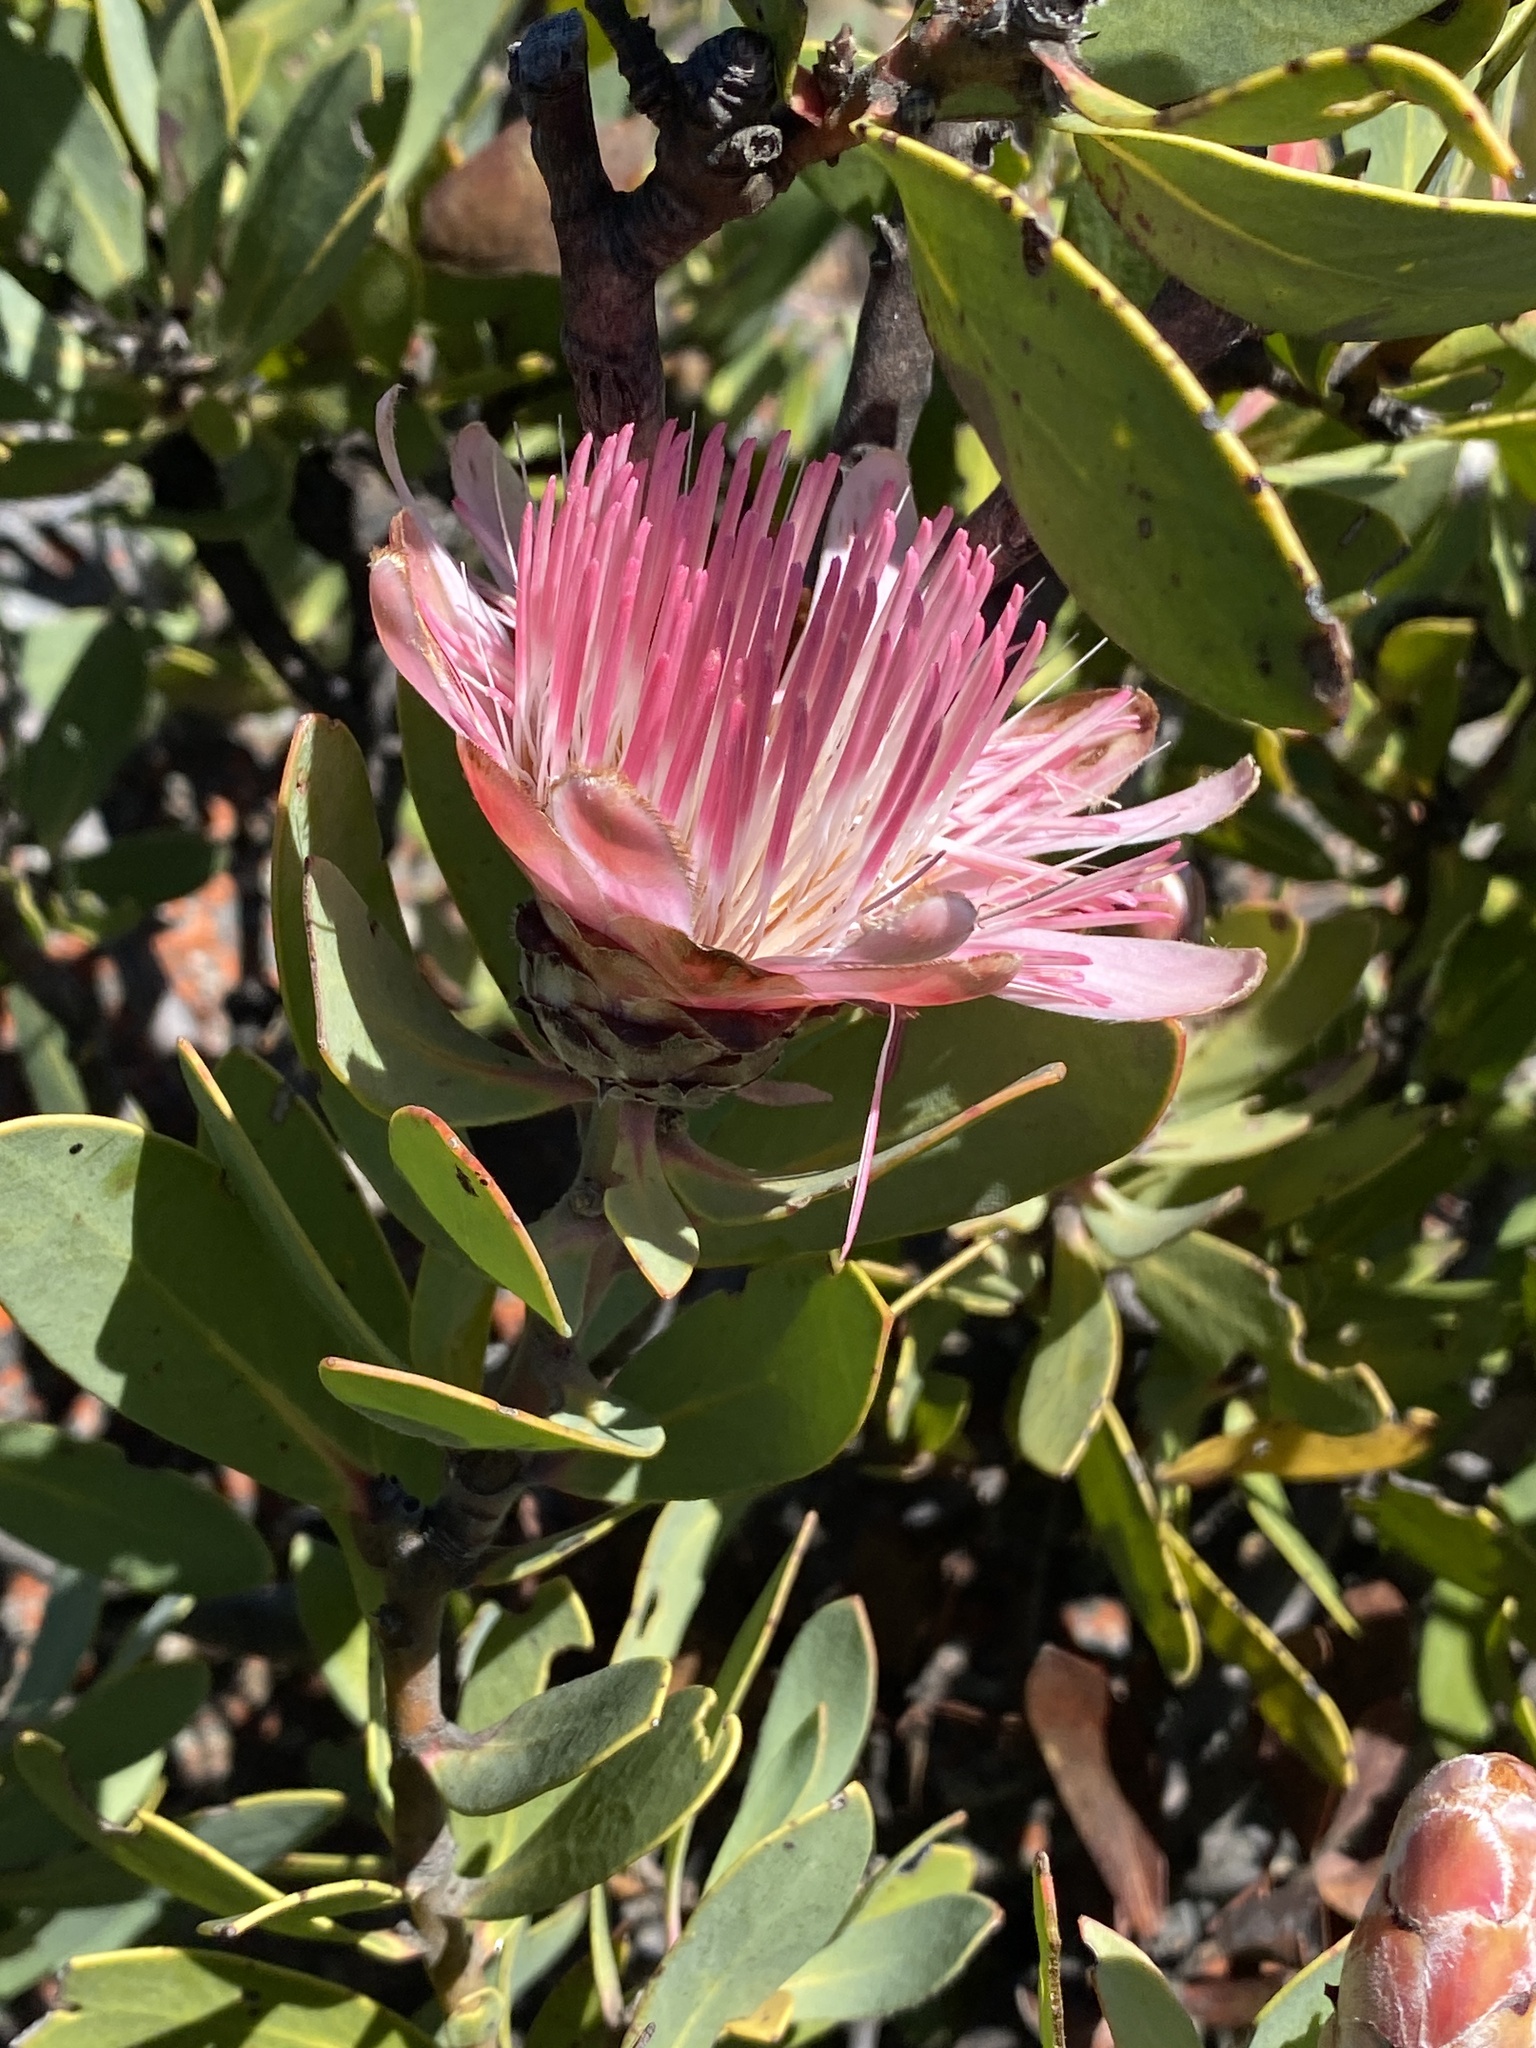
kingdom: Plantae
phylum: Tracheophyta
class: Magnoliopsida
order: Proteales
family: Proteaceae
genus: Protea
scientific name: Protea punctata
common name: Water sugarbush
